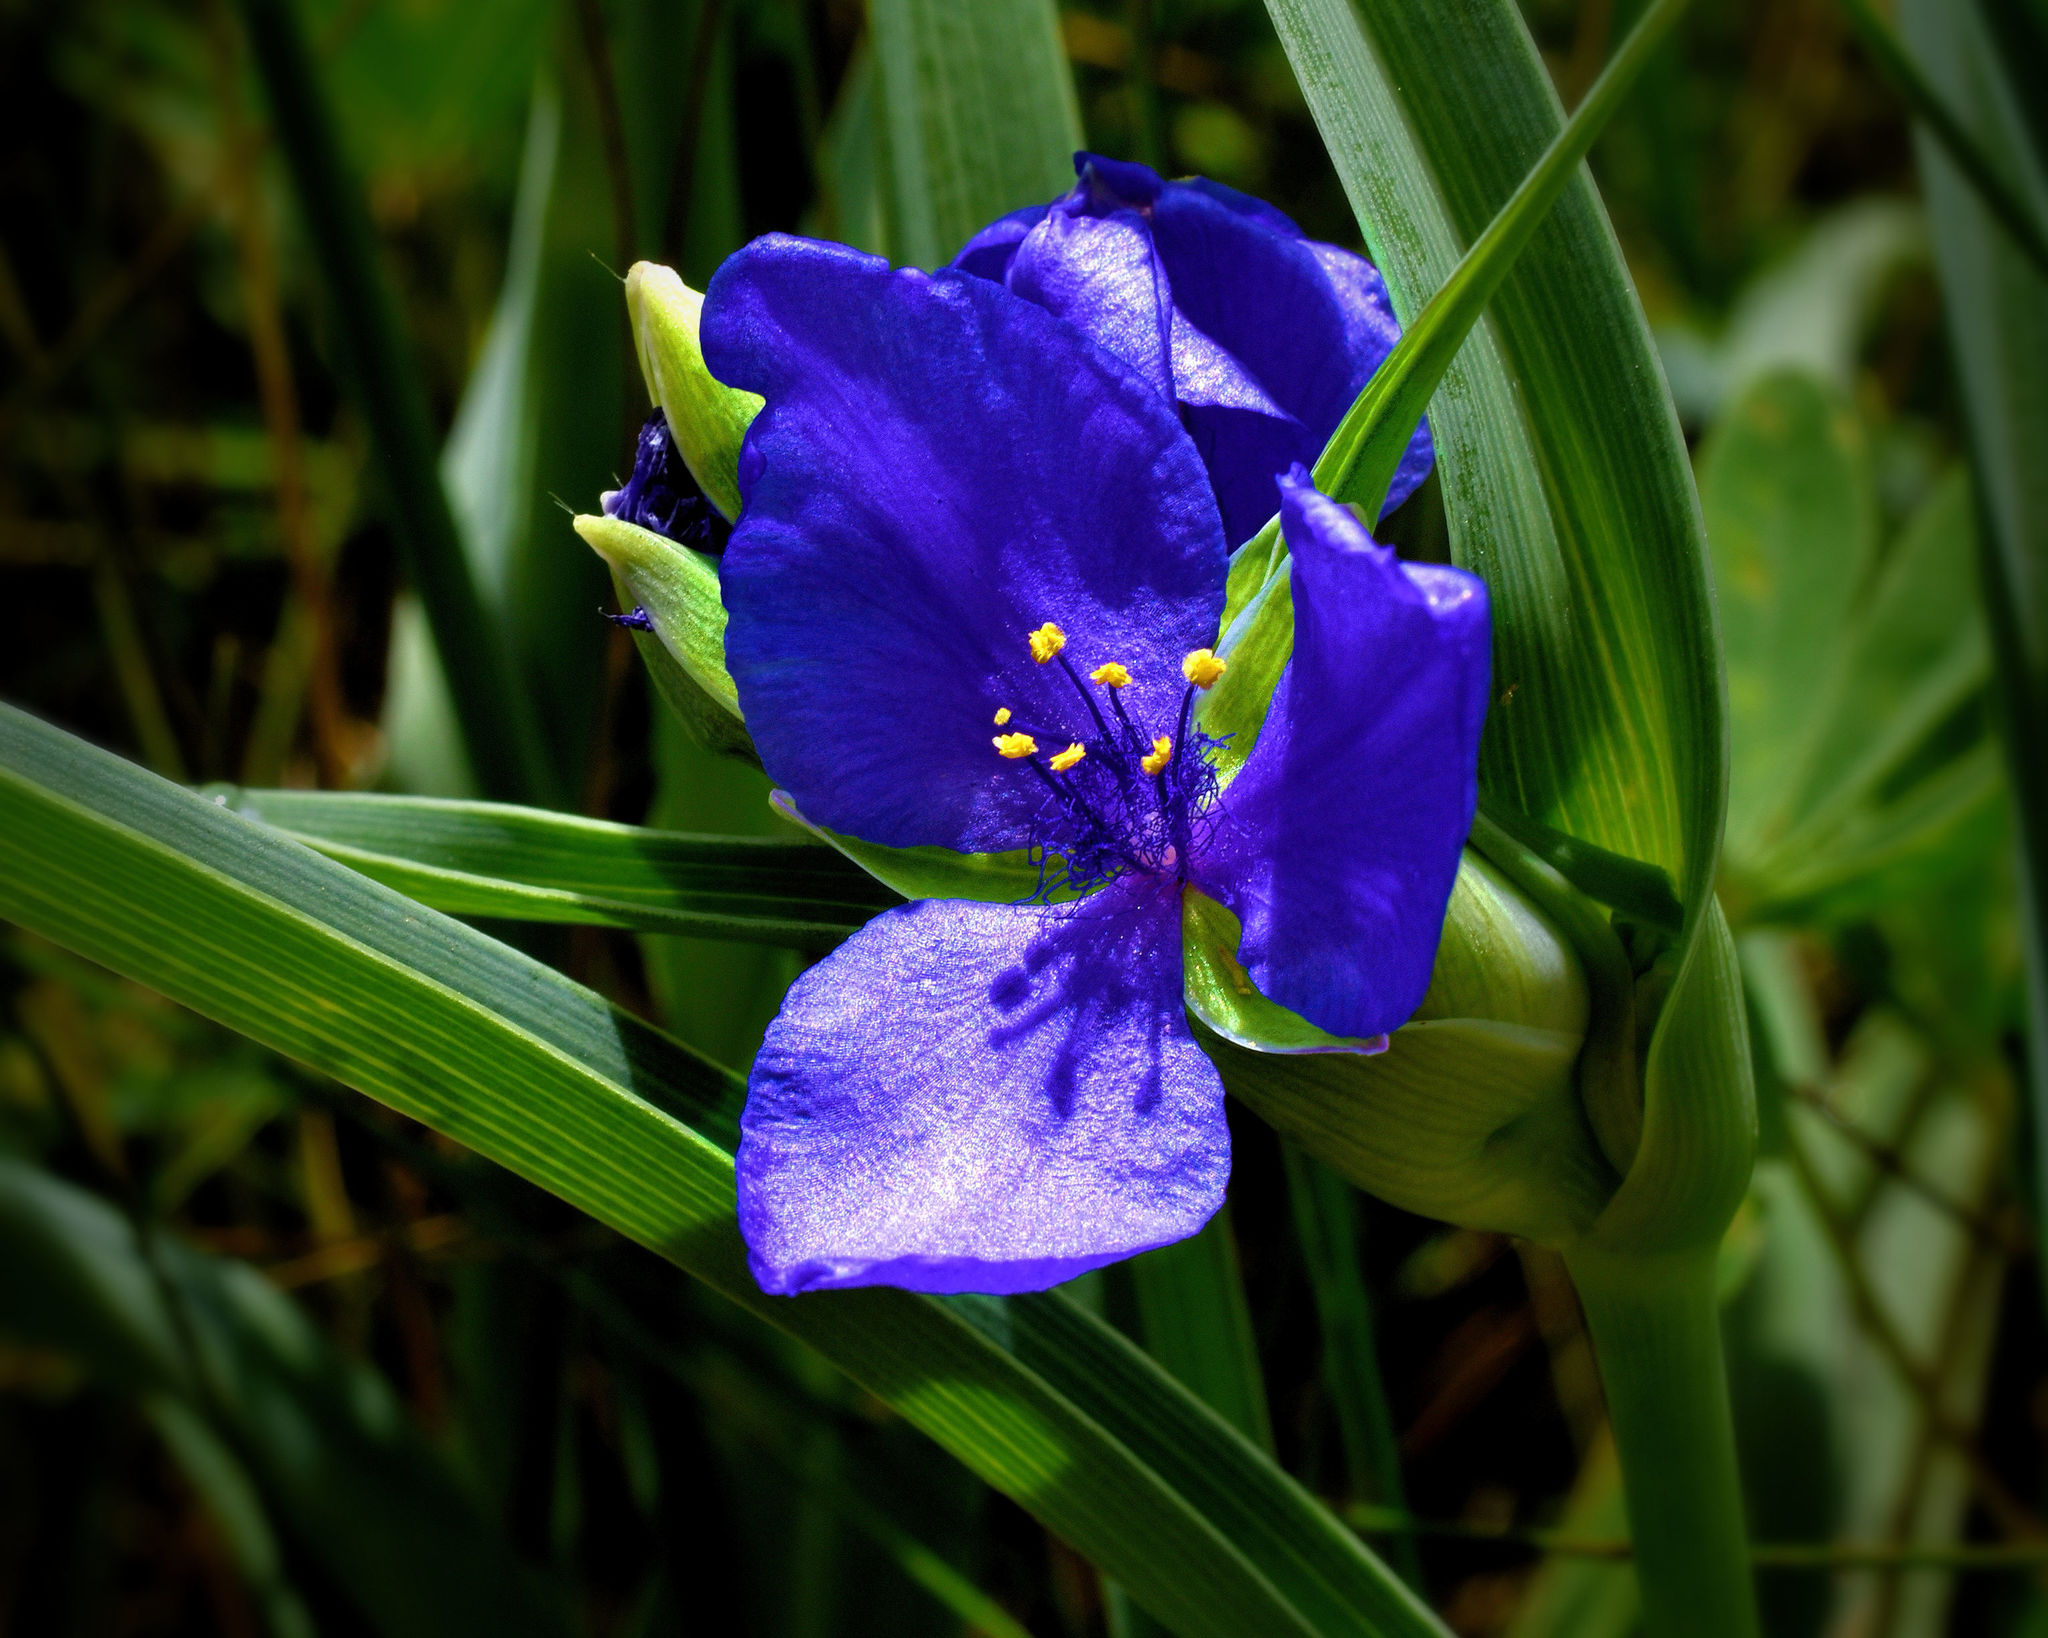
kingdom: Plantae
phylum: Tracheophyta
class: Liliopsida
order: Commelinales
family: Commelinaceae
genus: Tradescantia
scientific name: Tradescantia ohiensis
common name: Ohio spiderwort
